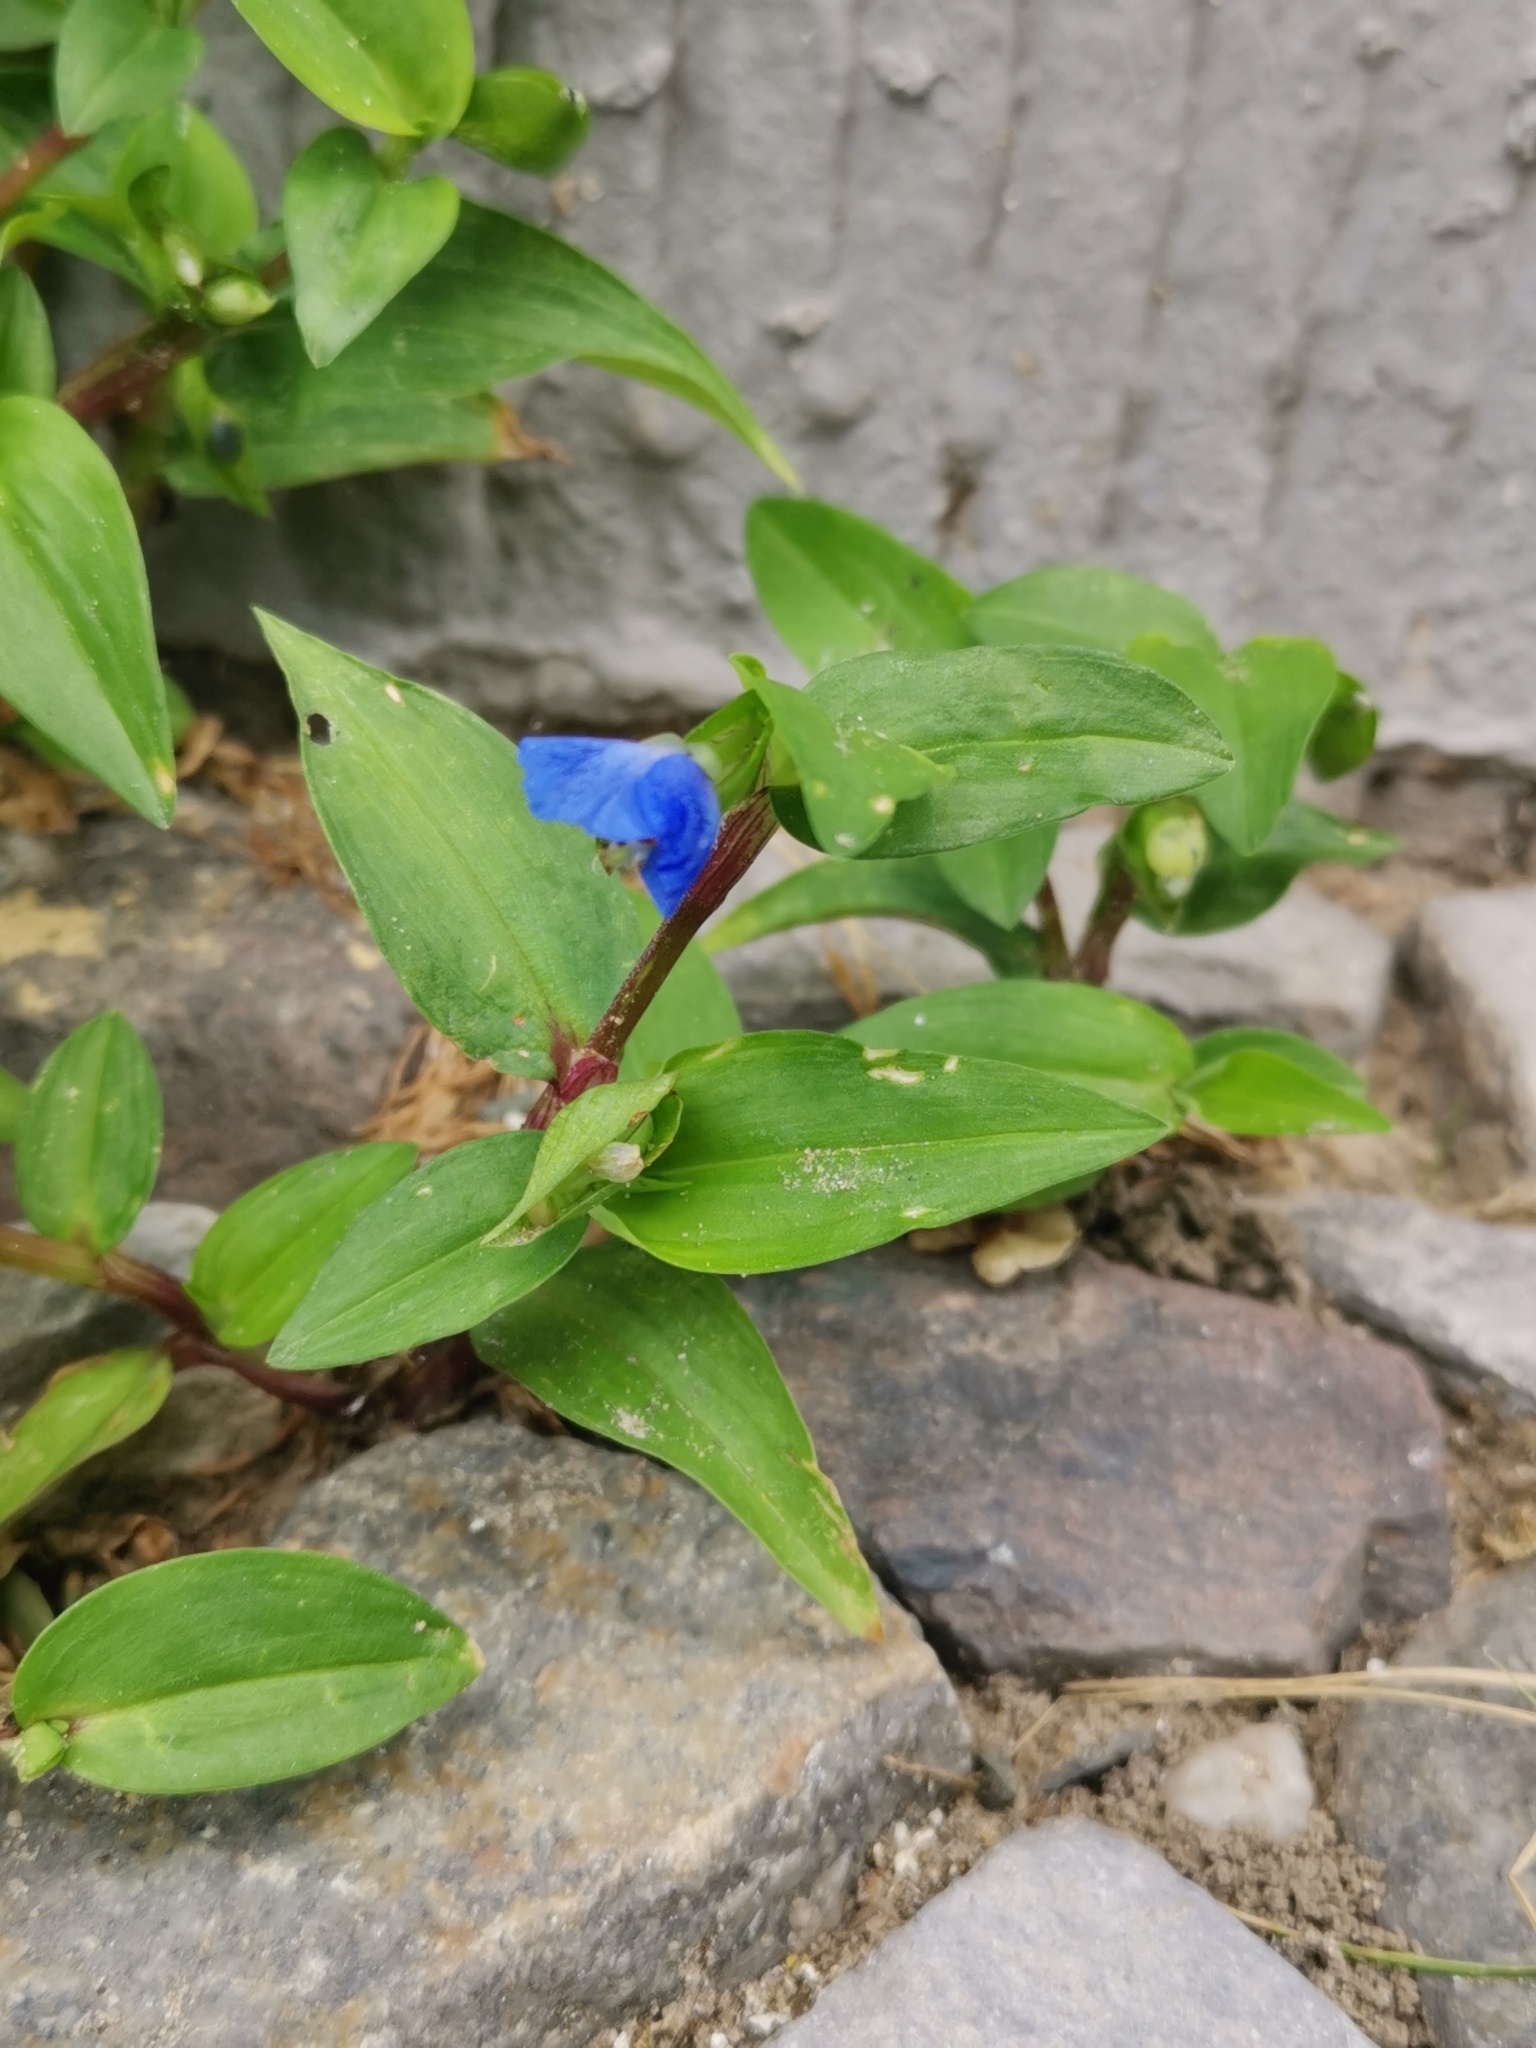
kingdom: Plantae
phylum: Tracheophyta
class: Liliopsida
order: Commelinales
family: Commelinaceae
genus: Commelina
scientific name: Commelina communis
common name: Asiatic dayflower
